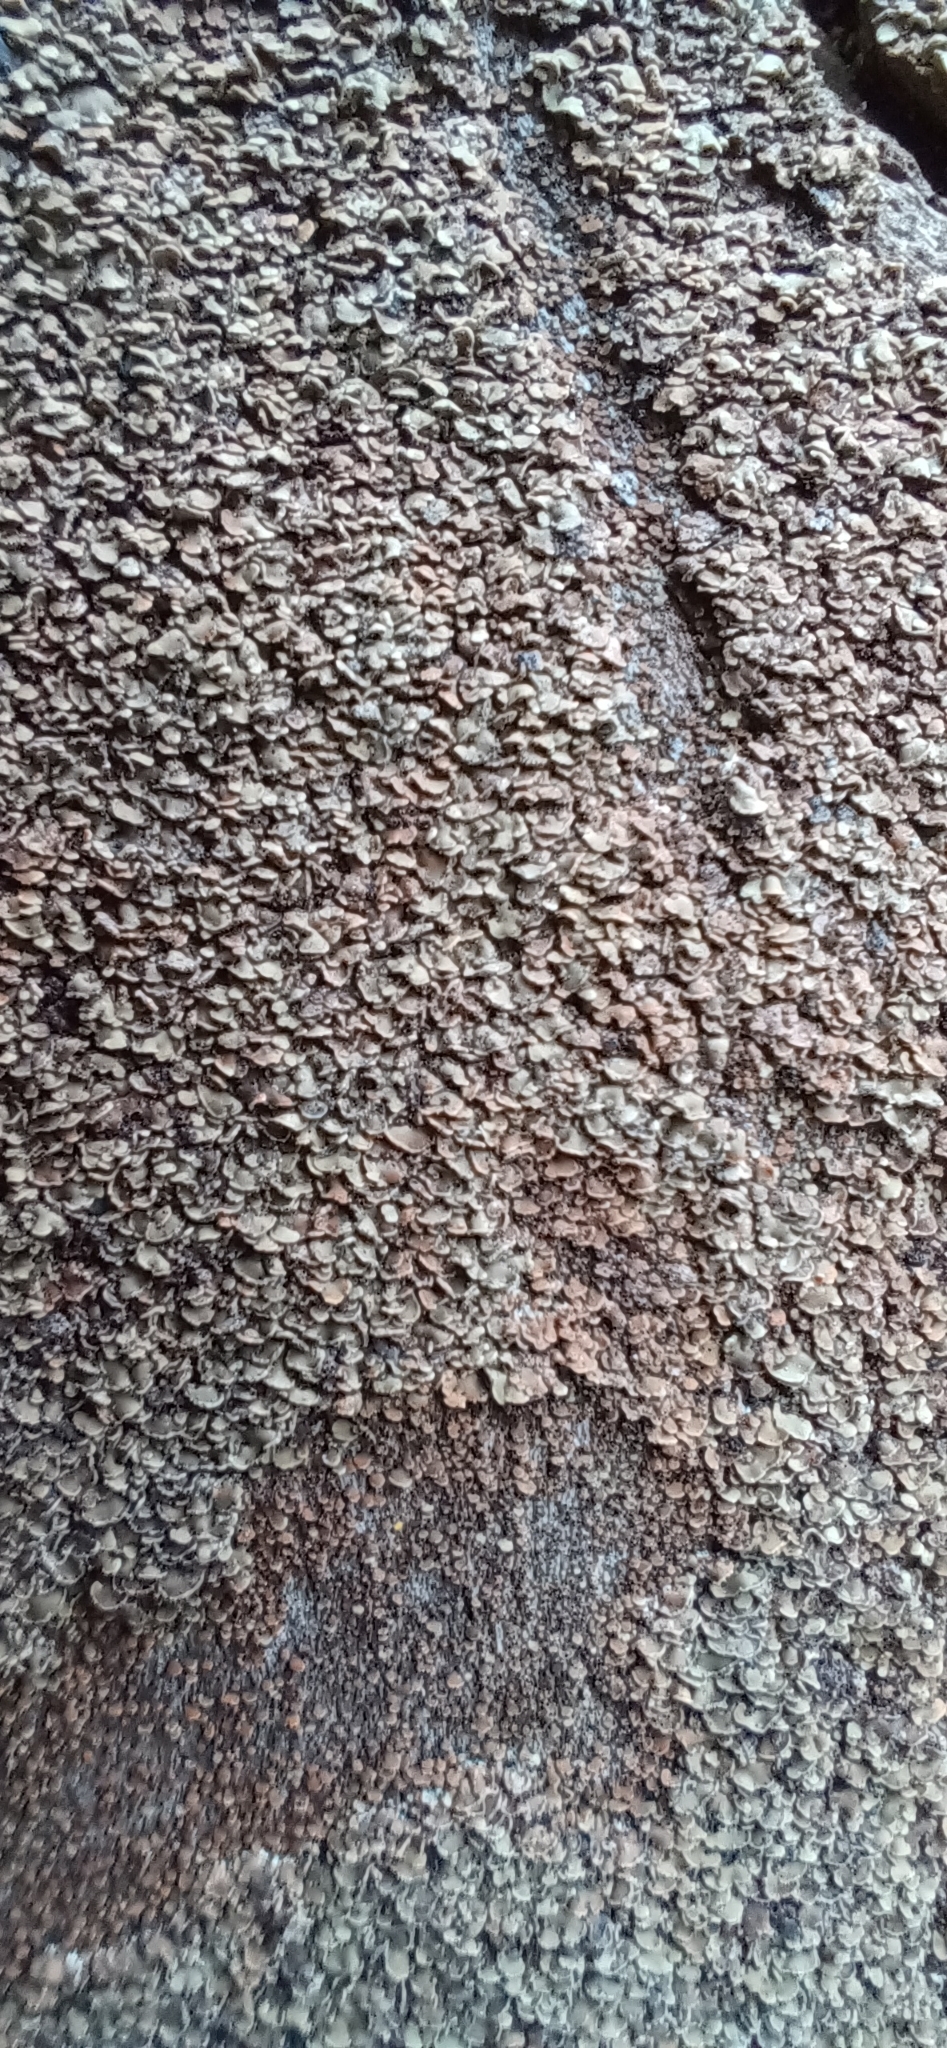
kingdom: Fungi
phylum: Ascomycota
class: Lecanoromycetes
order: Umbilicariales
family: Ophioparmaceae
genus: Hypocenomyce
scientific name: Hypocenomyce scalaris
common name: Common clam lichen
